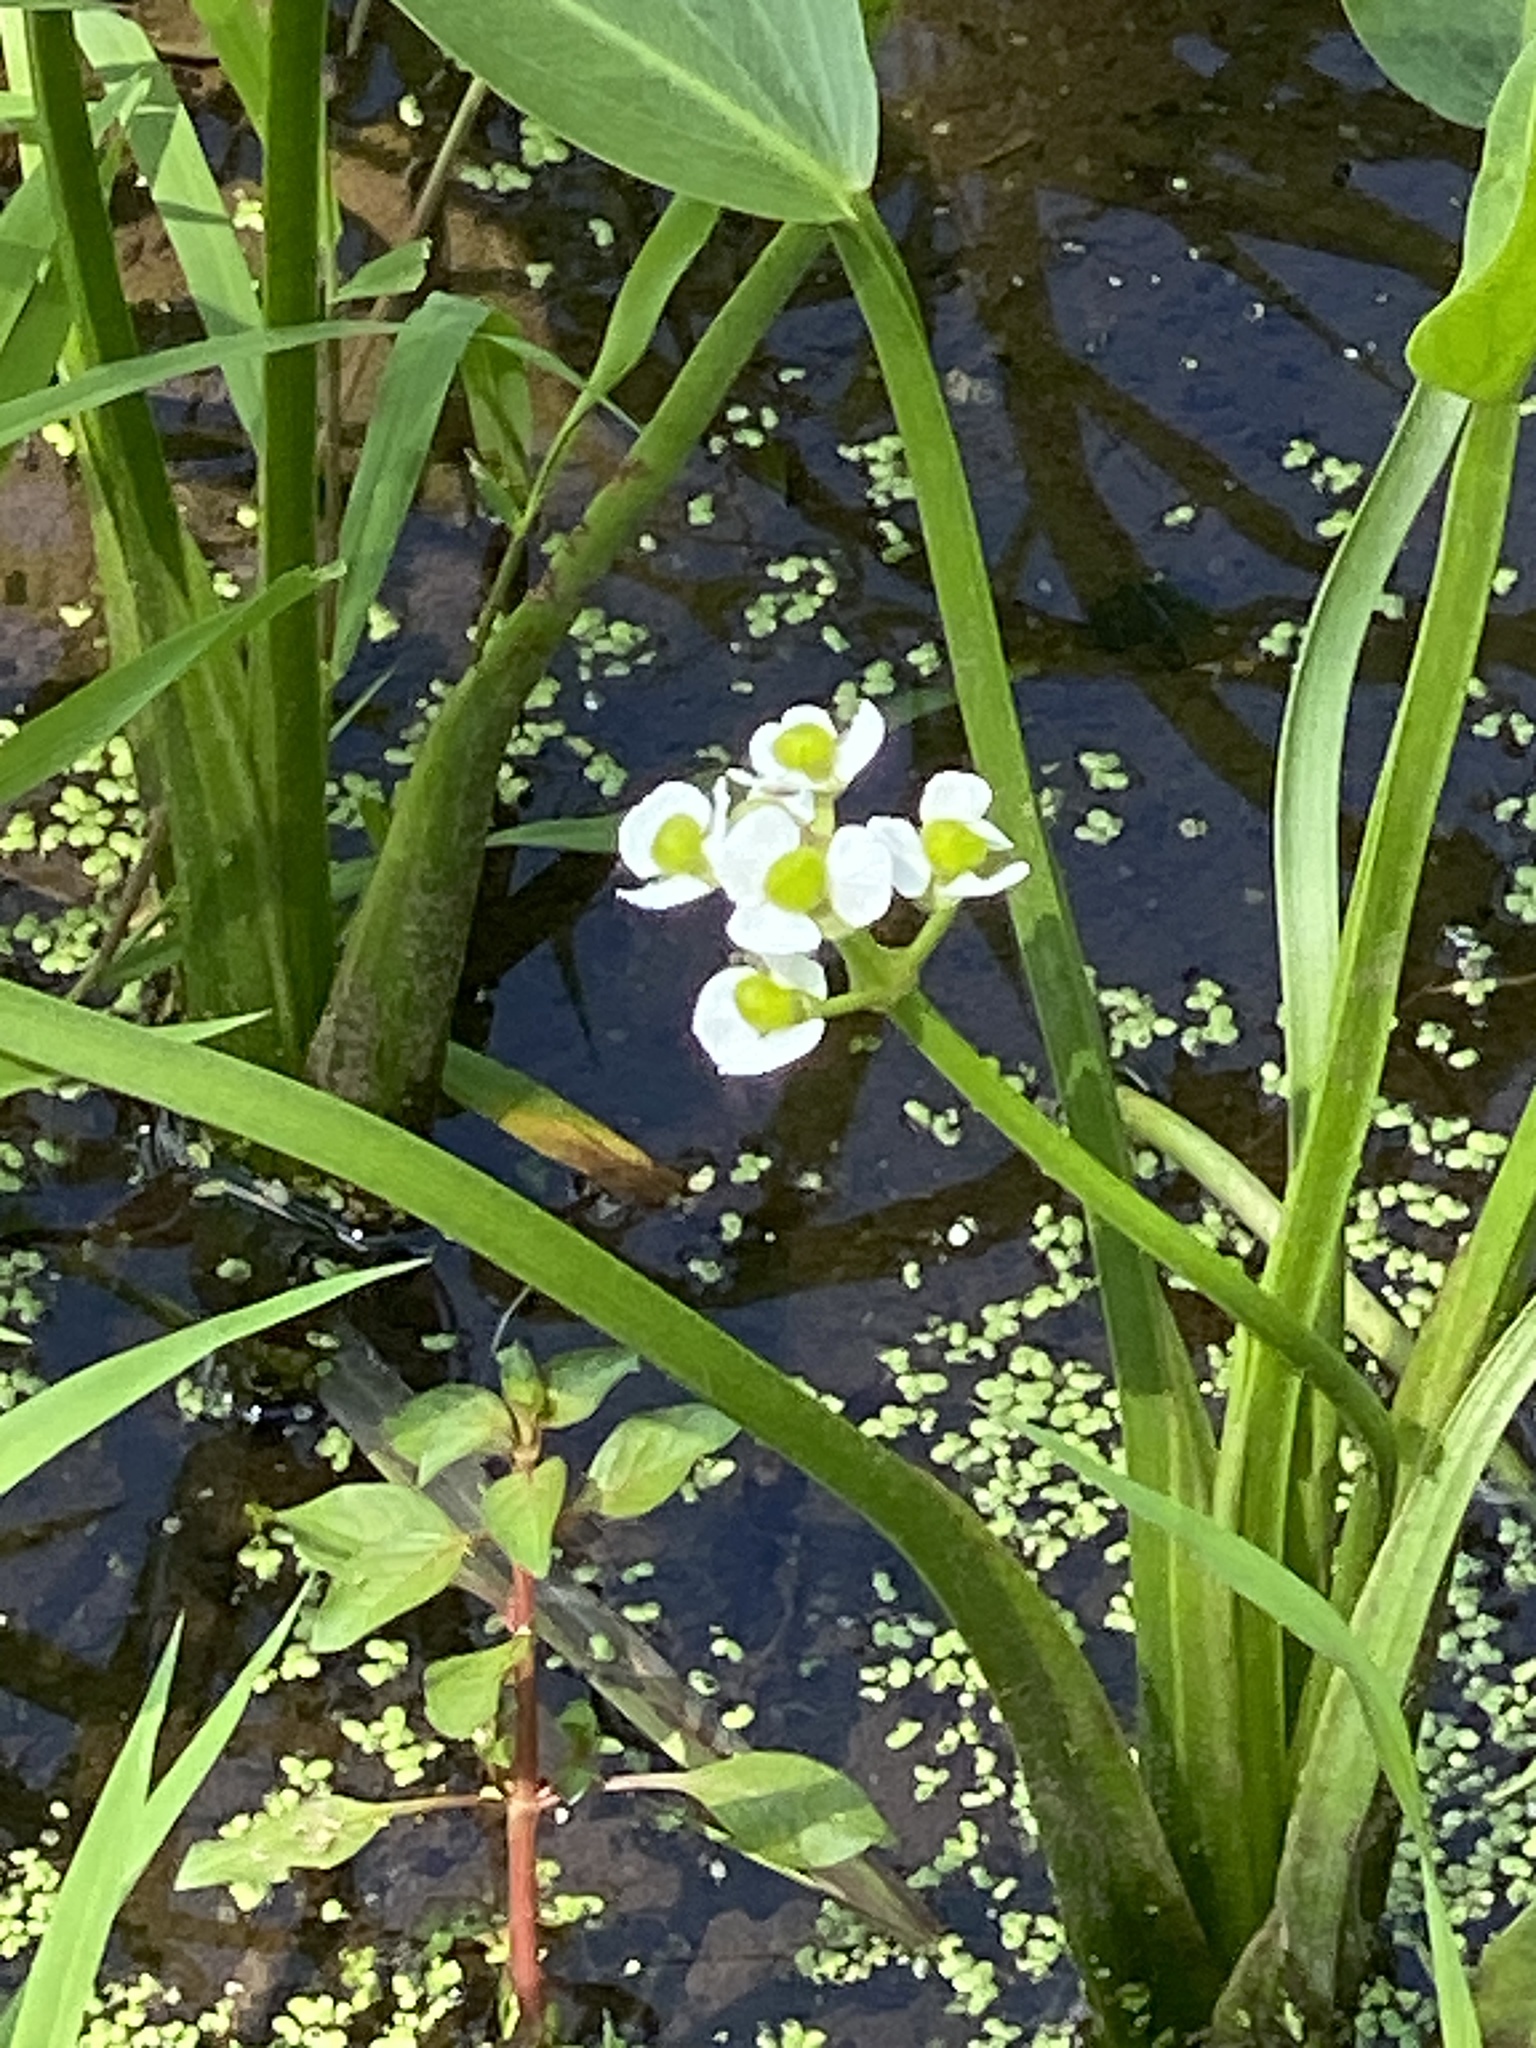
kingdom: Plantae
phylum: Tracheophyta
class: Liliopsida
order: Alismatales
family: Alismataceae
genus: Sagittaria
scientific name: Sagittaria platyphylla
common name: Broad-leaf arrowhead
